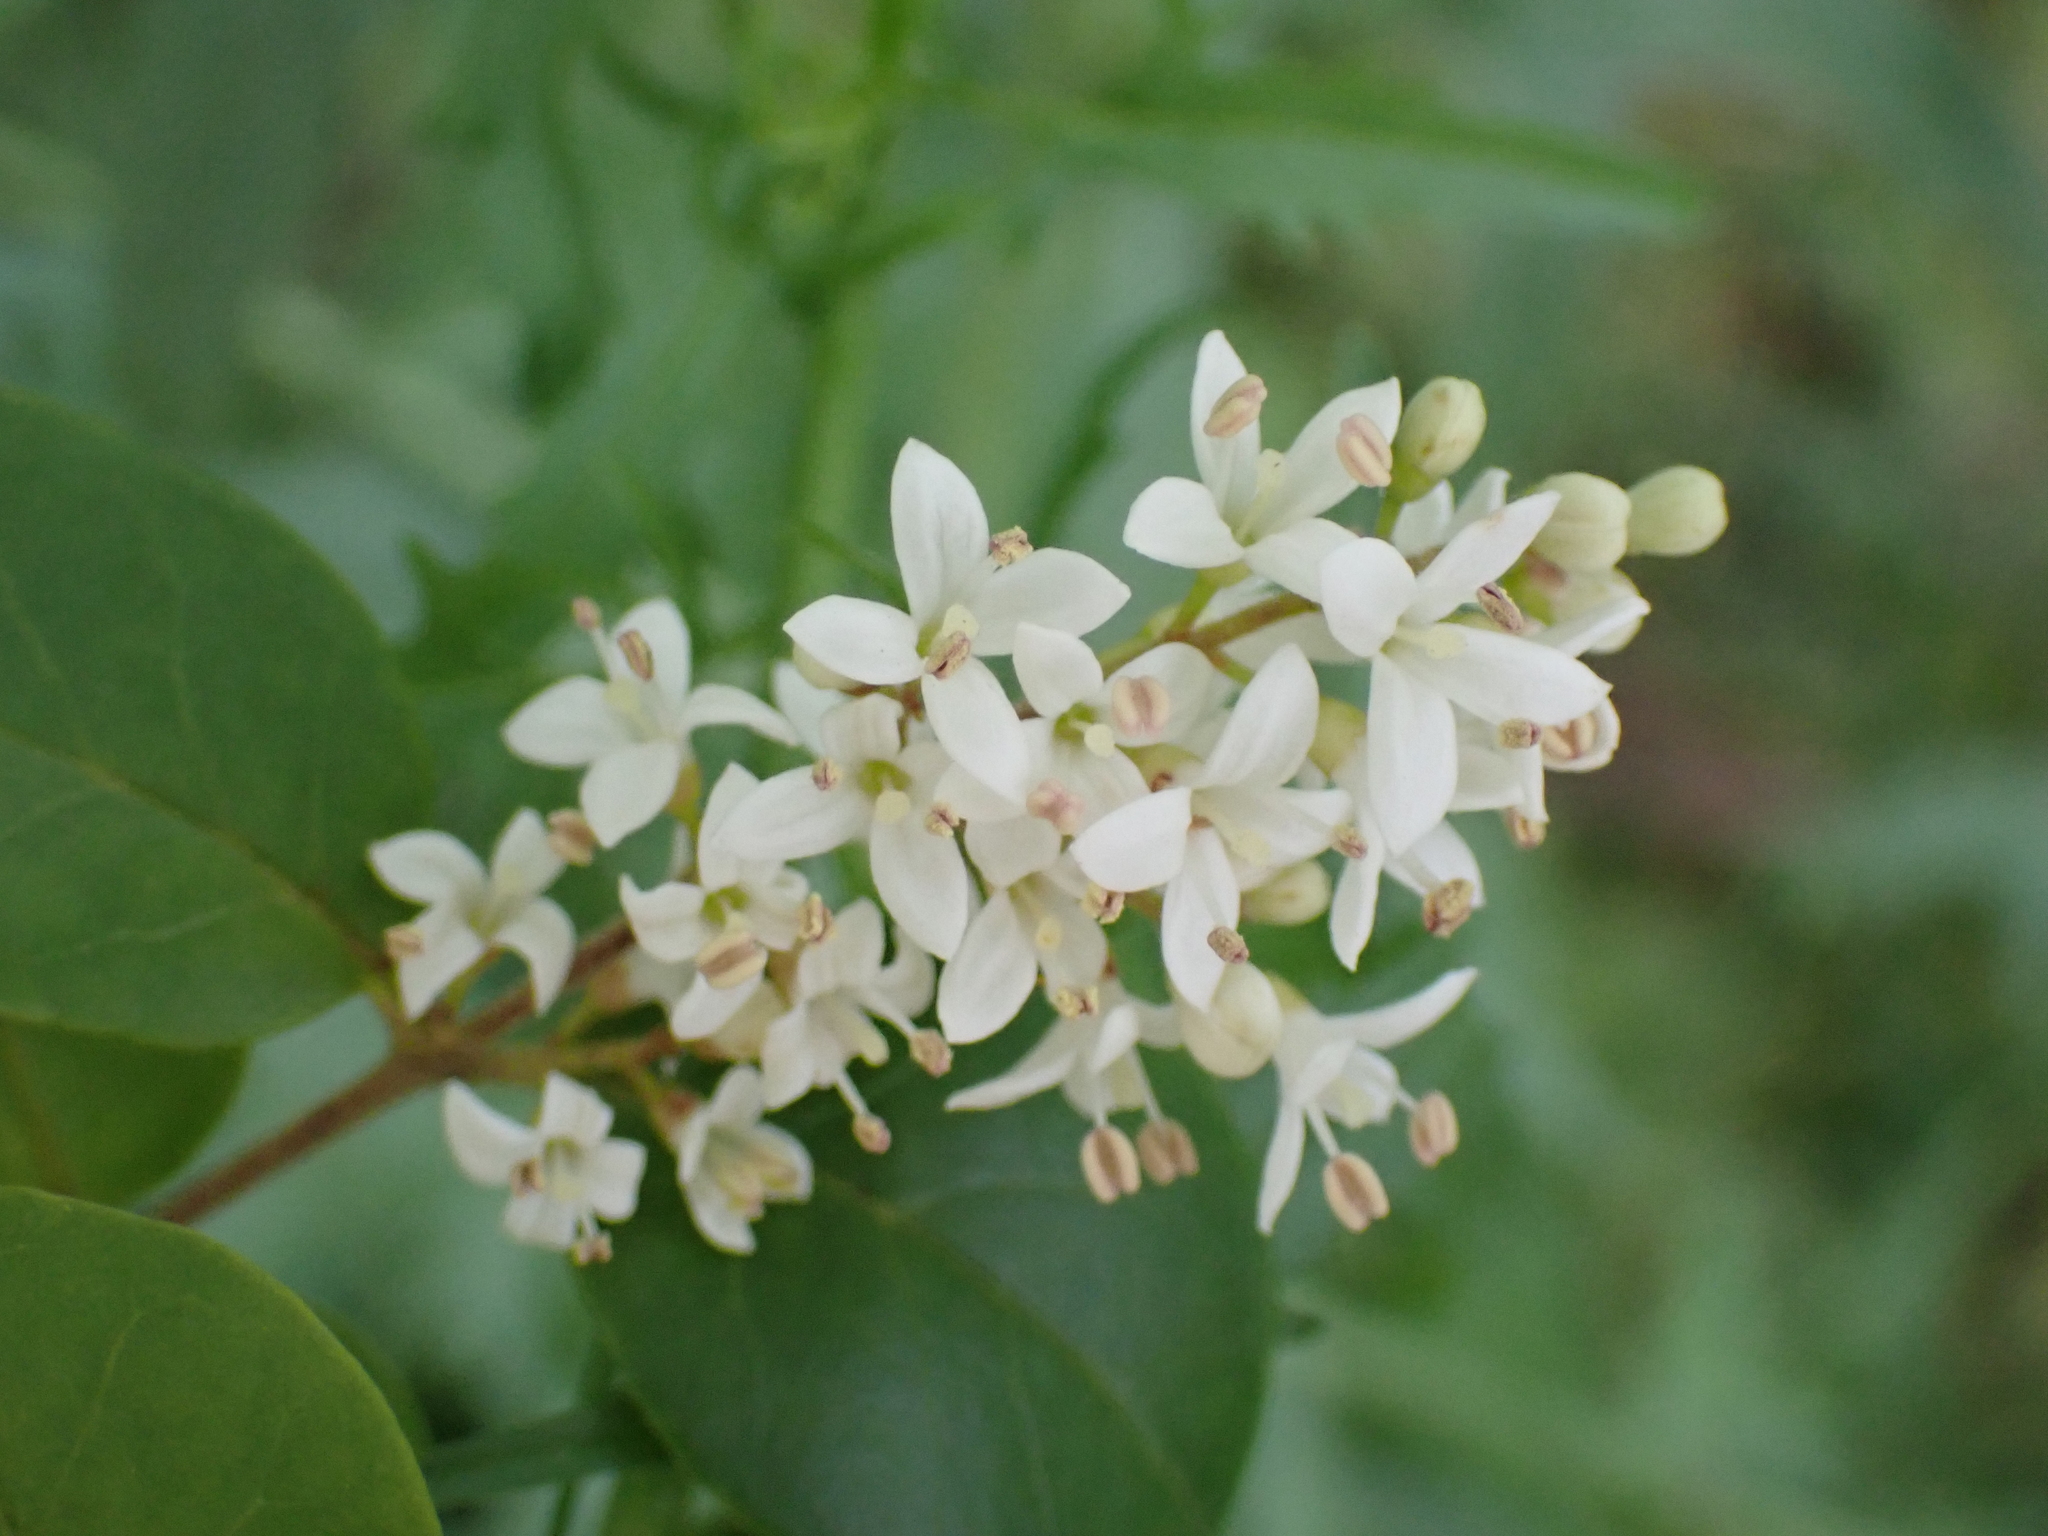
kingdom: Plantae
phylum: Tracheophyta
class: Magnoliopsida
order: Lamiales
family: Oleaceae
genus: Ligustrum
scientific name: Ligustrum sinense
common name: Chinese privet
